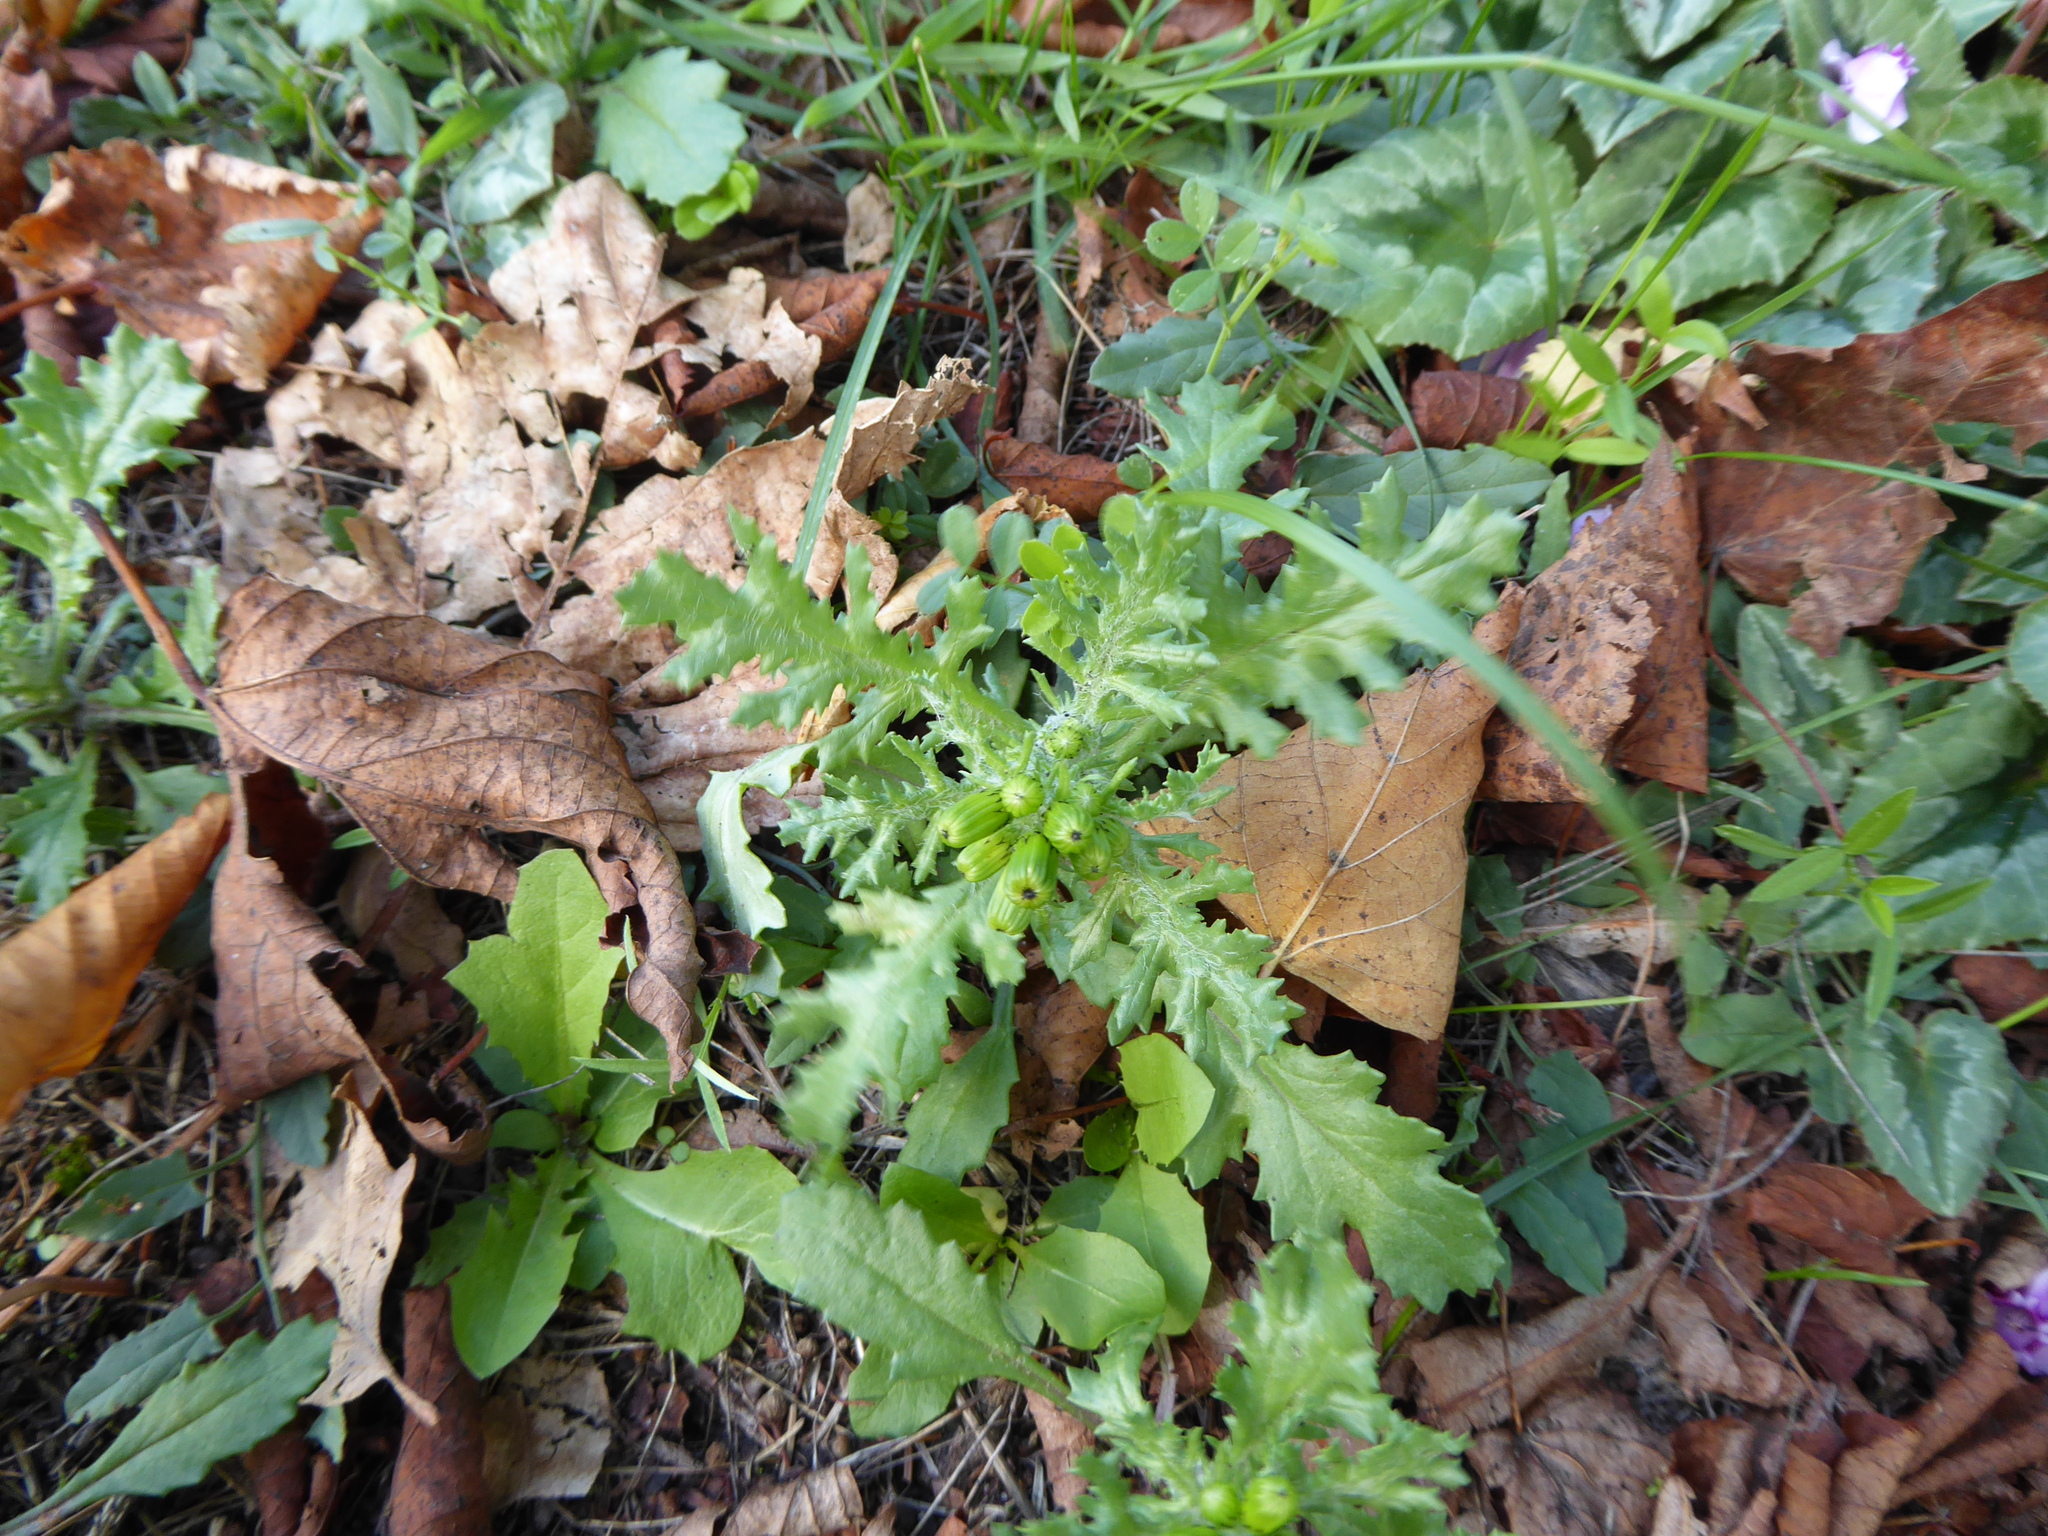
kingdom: Plantae
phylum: Tracheophyta
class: Magnoliopsida
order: Asterales
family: Asteraceae
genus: Senecio
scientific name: Senecio vulgaris
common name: Old-man-in-the-spring
